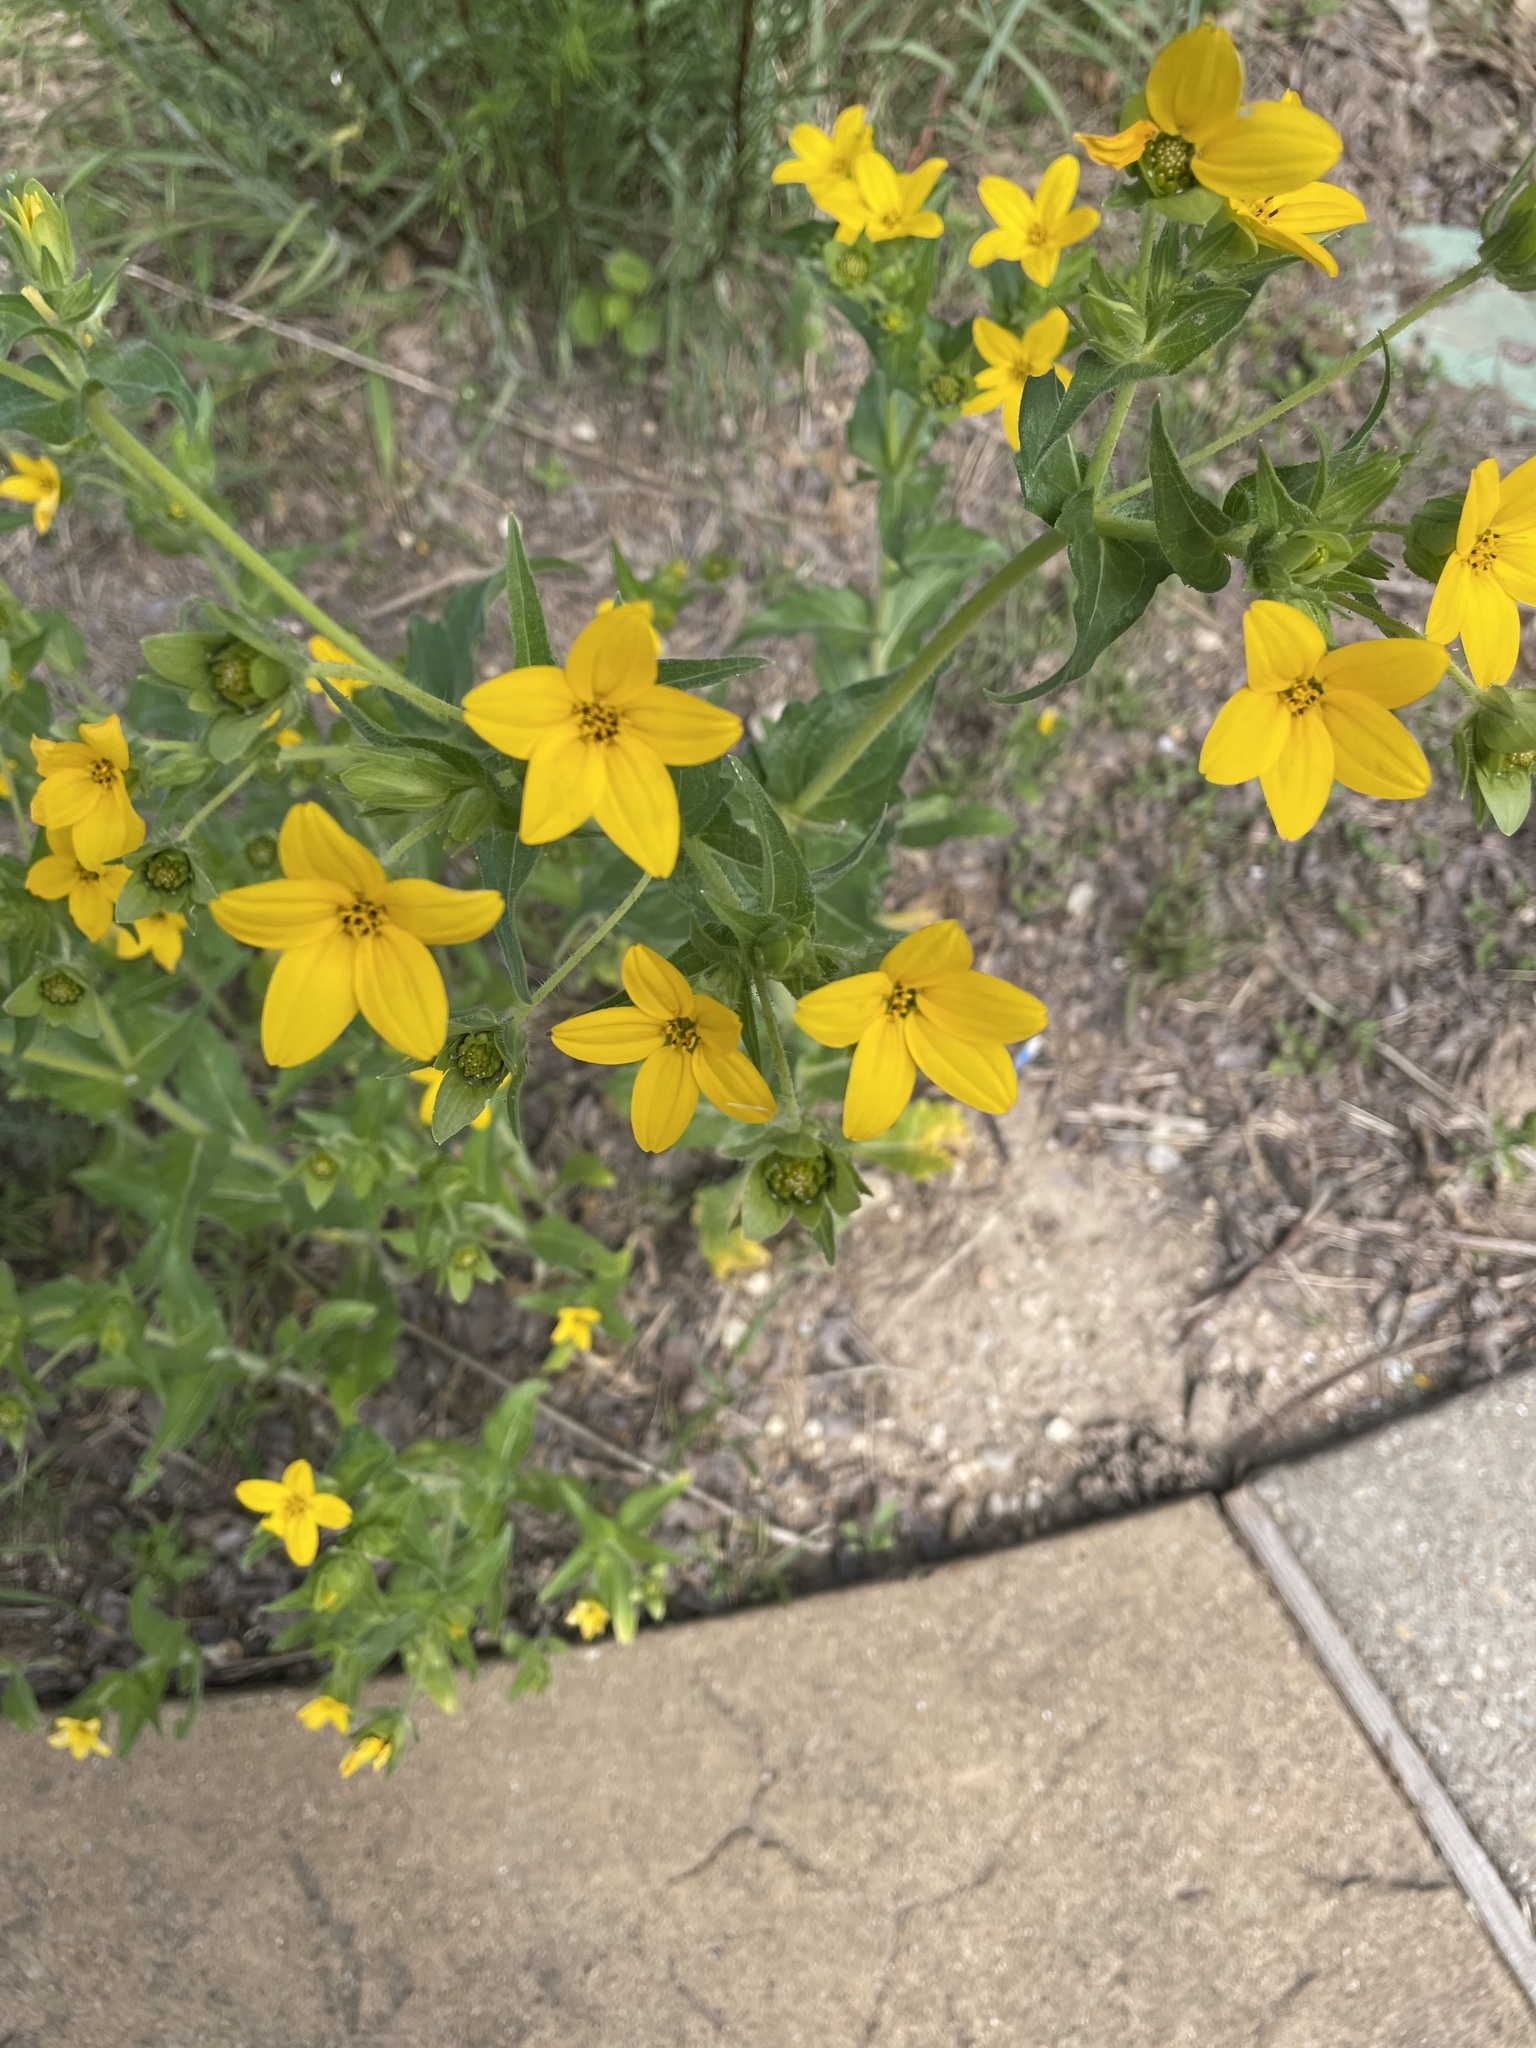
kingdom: Plantae
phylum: Tracheophyta
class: Magnoliopsida
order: Asterales
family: Asteraceae
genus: Lindheimera
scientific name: Lindheimera texana
